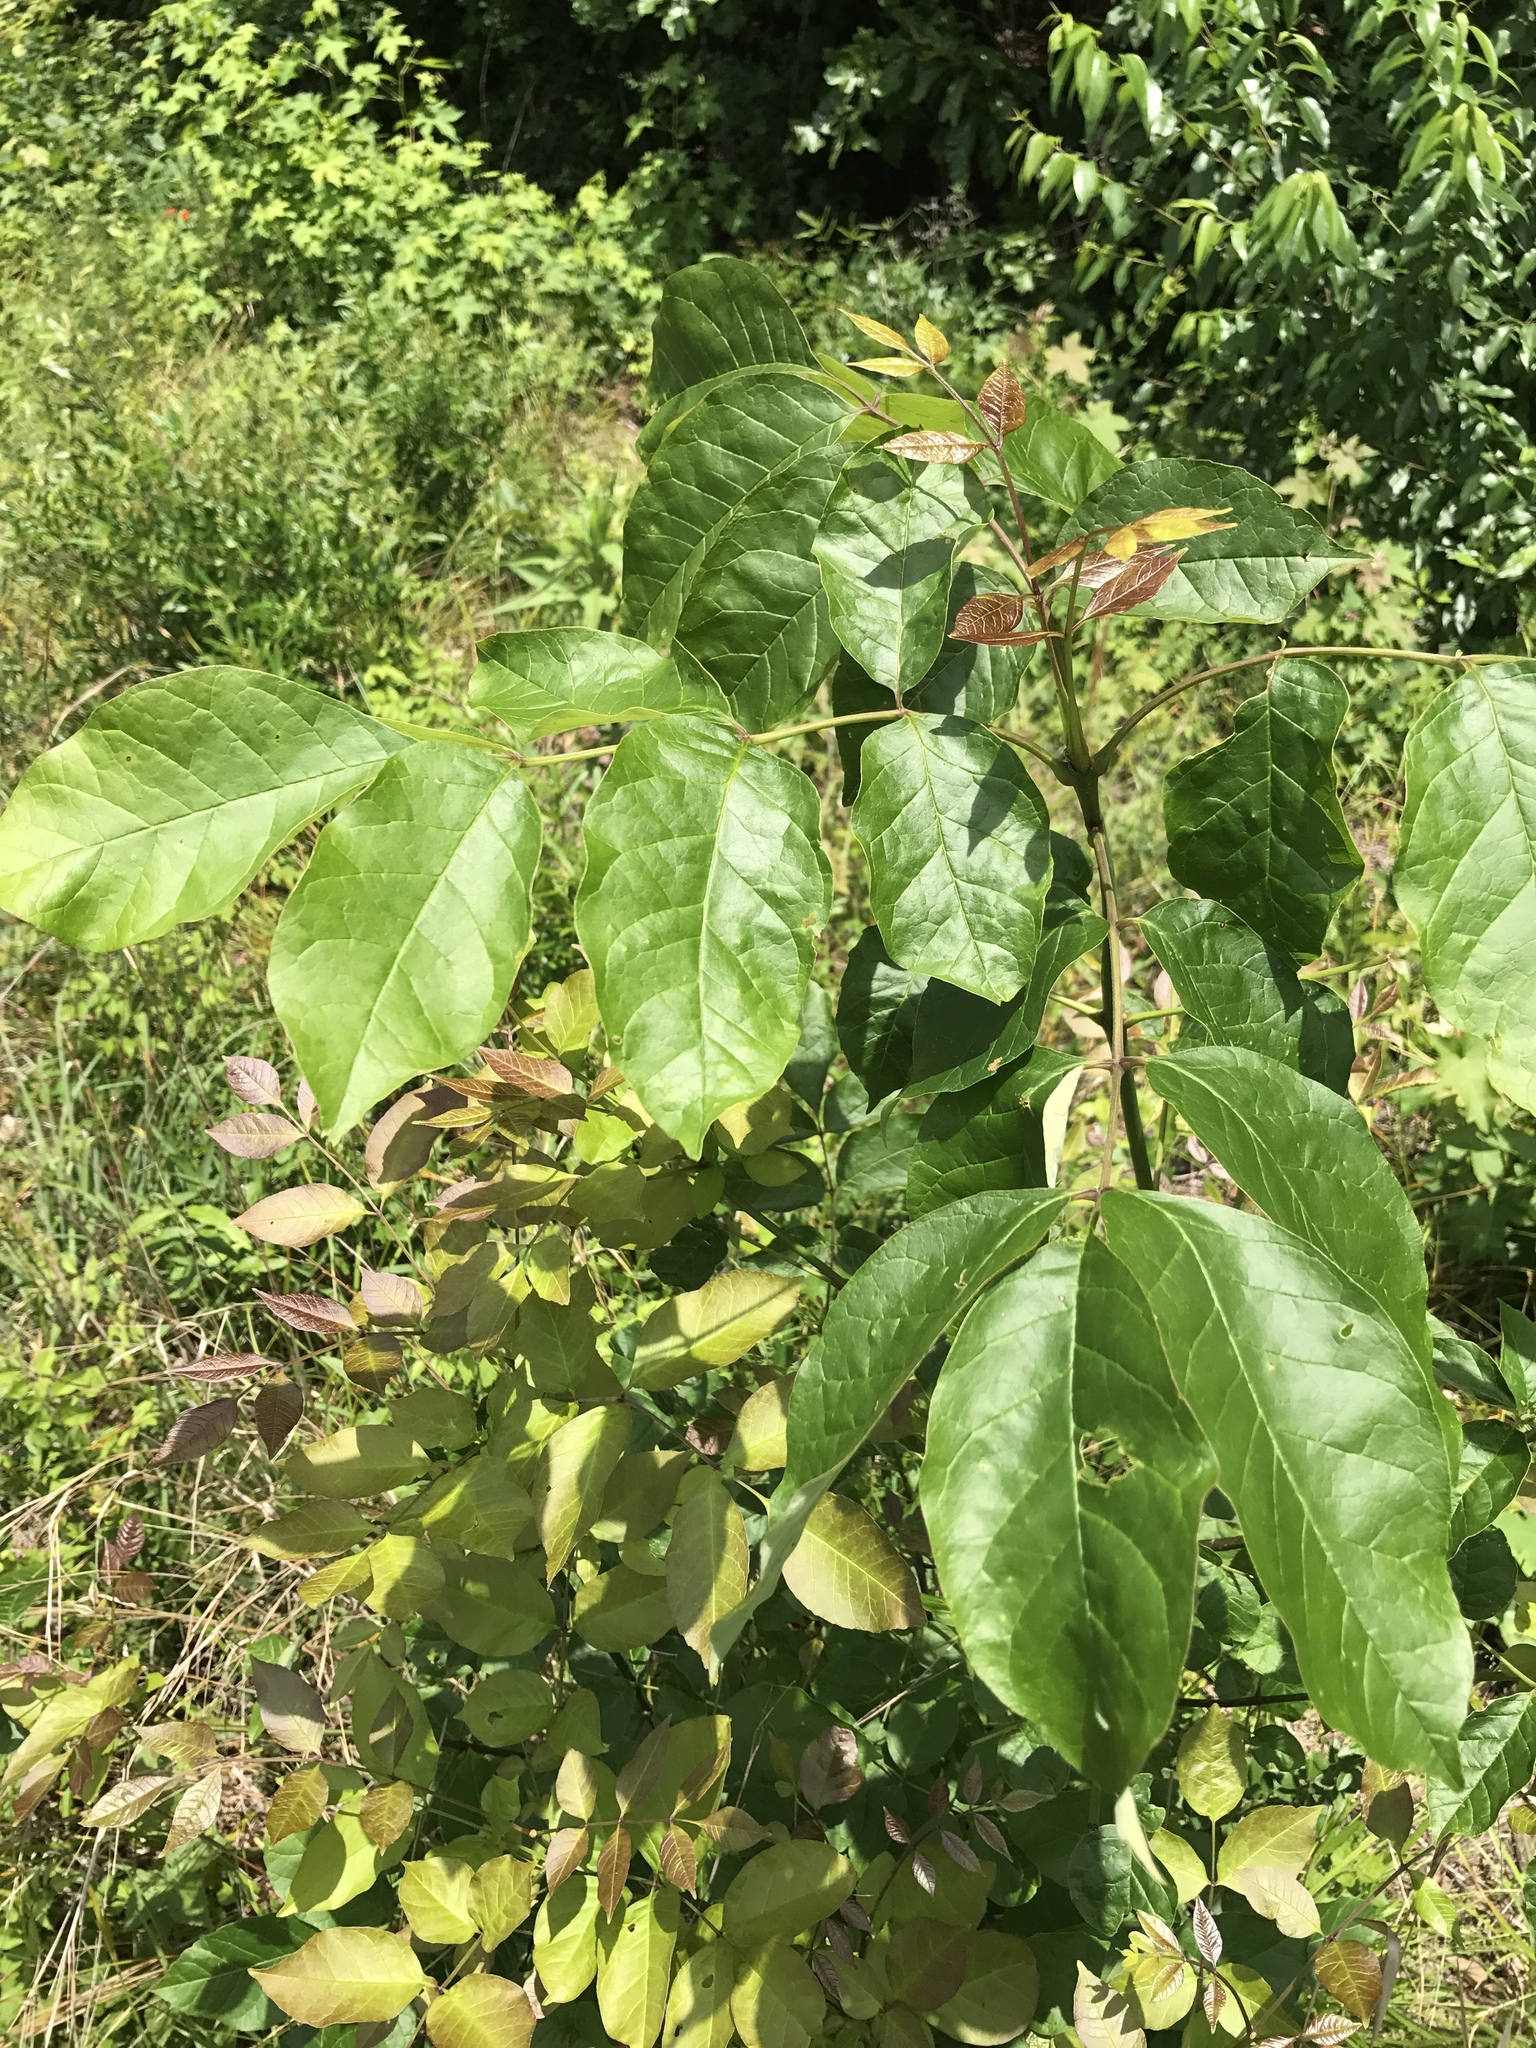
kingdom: Plantae
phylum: Tracheophyta
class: Magnoliopsida
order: Lamiales
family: Oleaceae
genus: Fraxinus
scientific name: Fraxinus americana
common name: White ash
